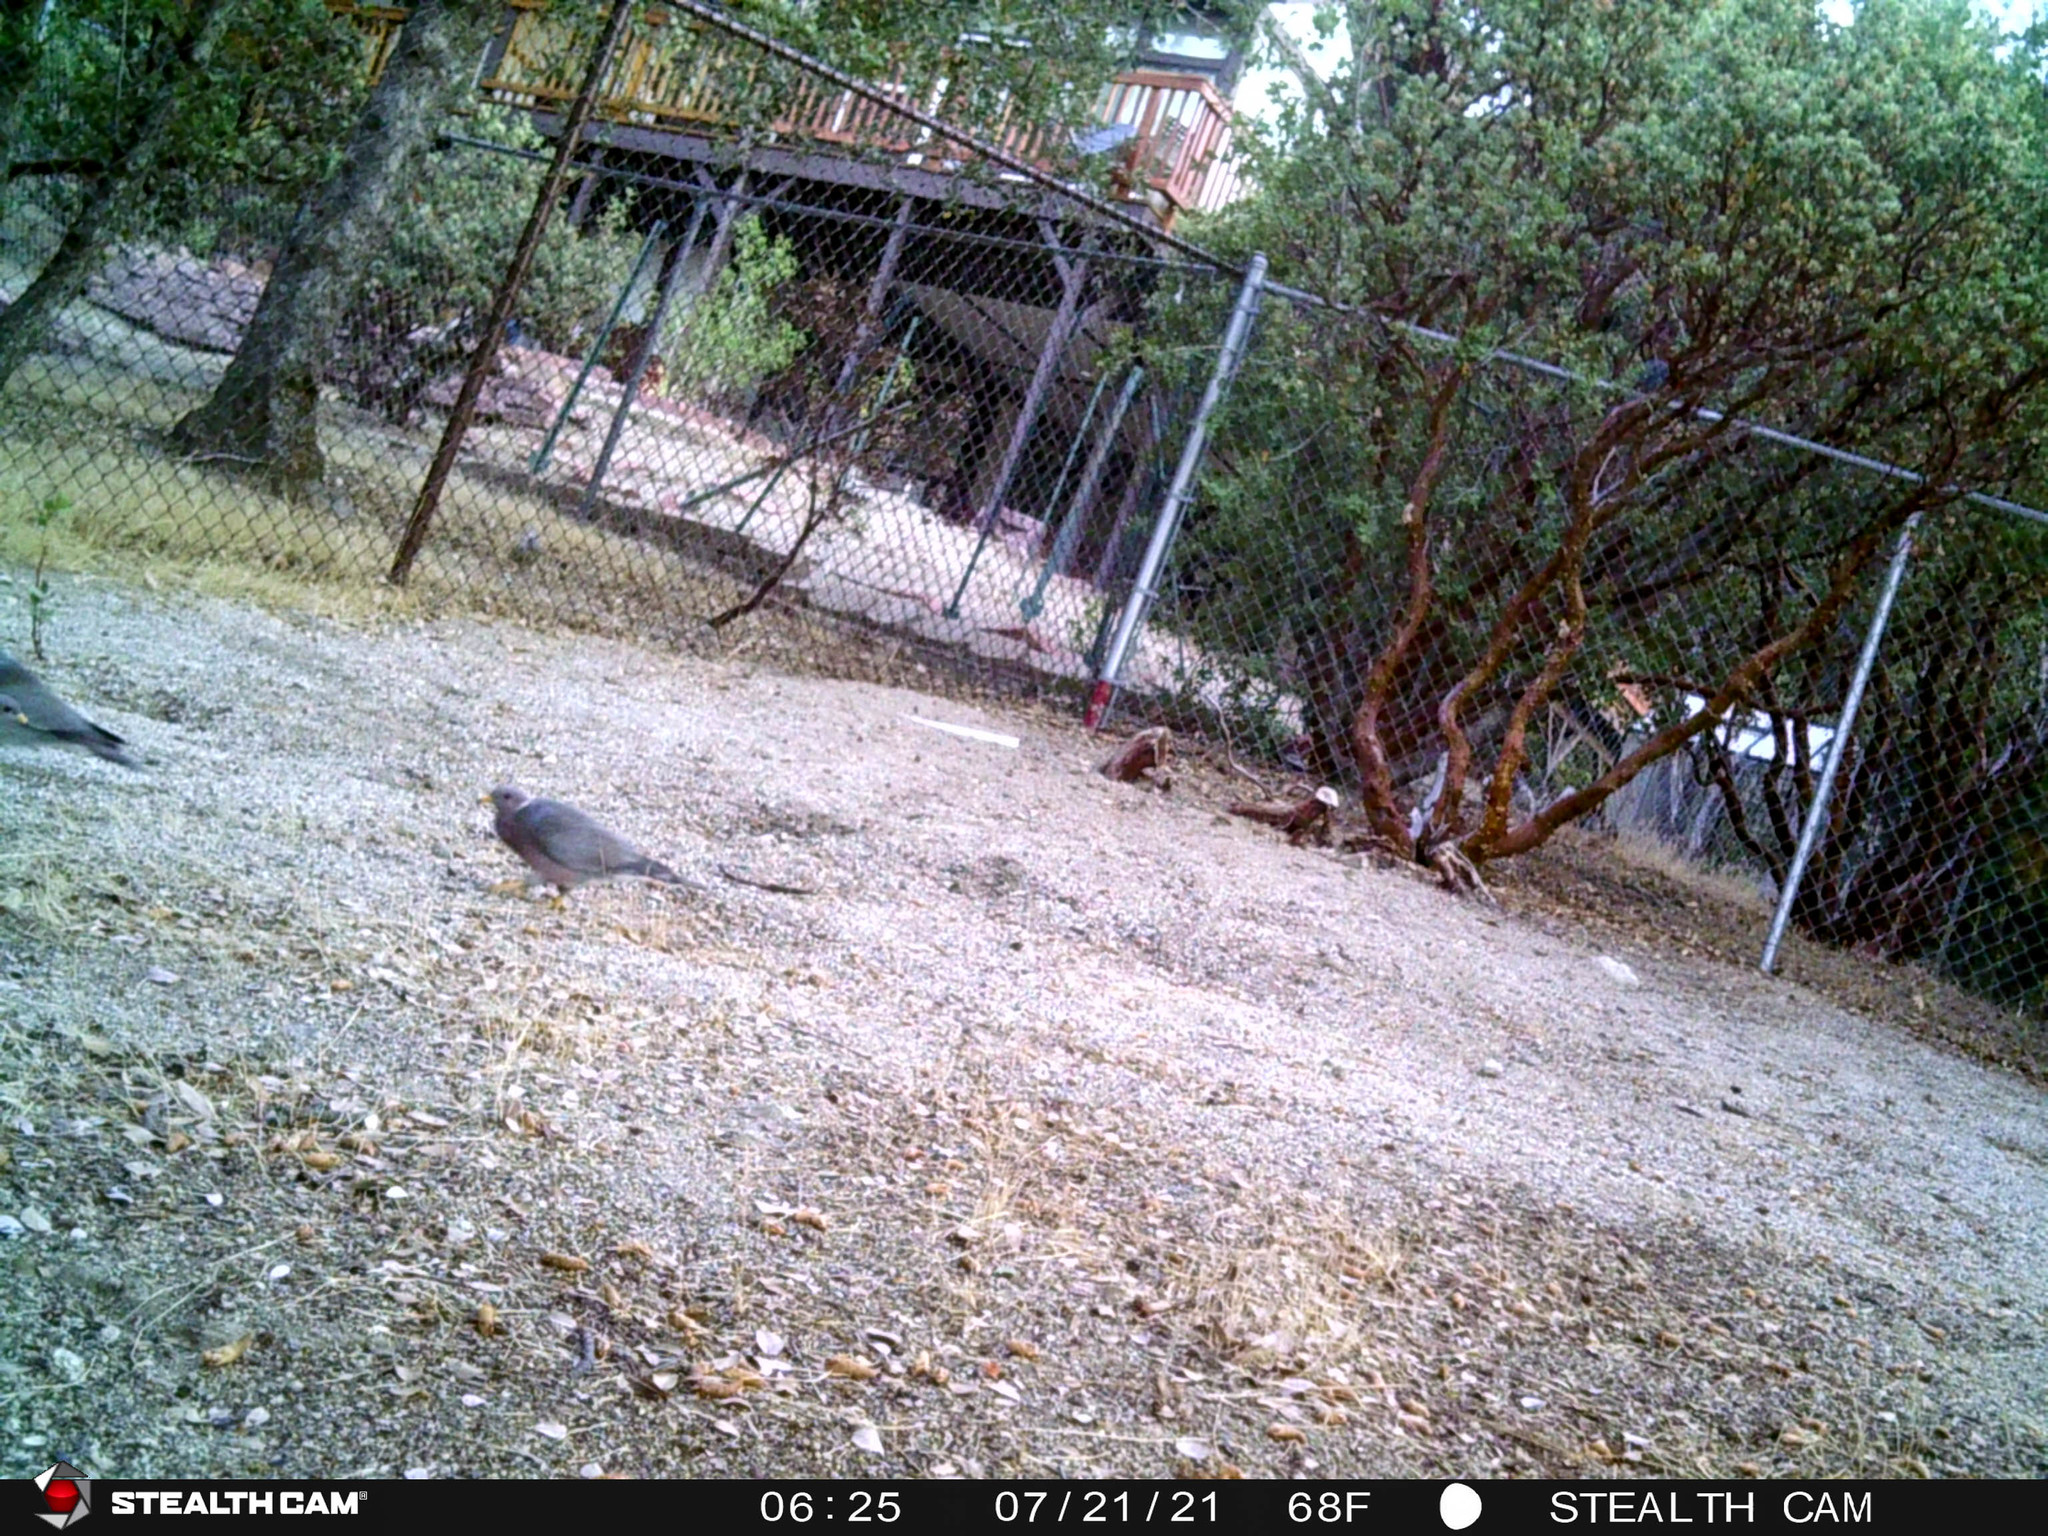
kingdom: Animalia
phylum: Chordata
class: Aves
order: Columbiformes
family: Columbidae
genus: Patagioenas
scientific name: Patagioenas fasciata
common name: Band-tailed pigeon
